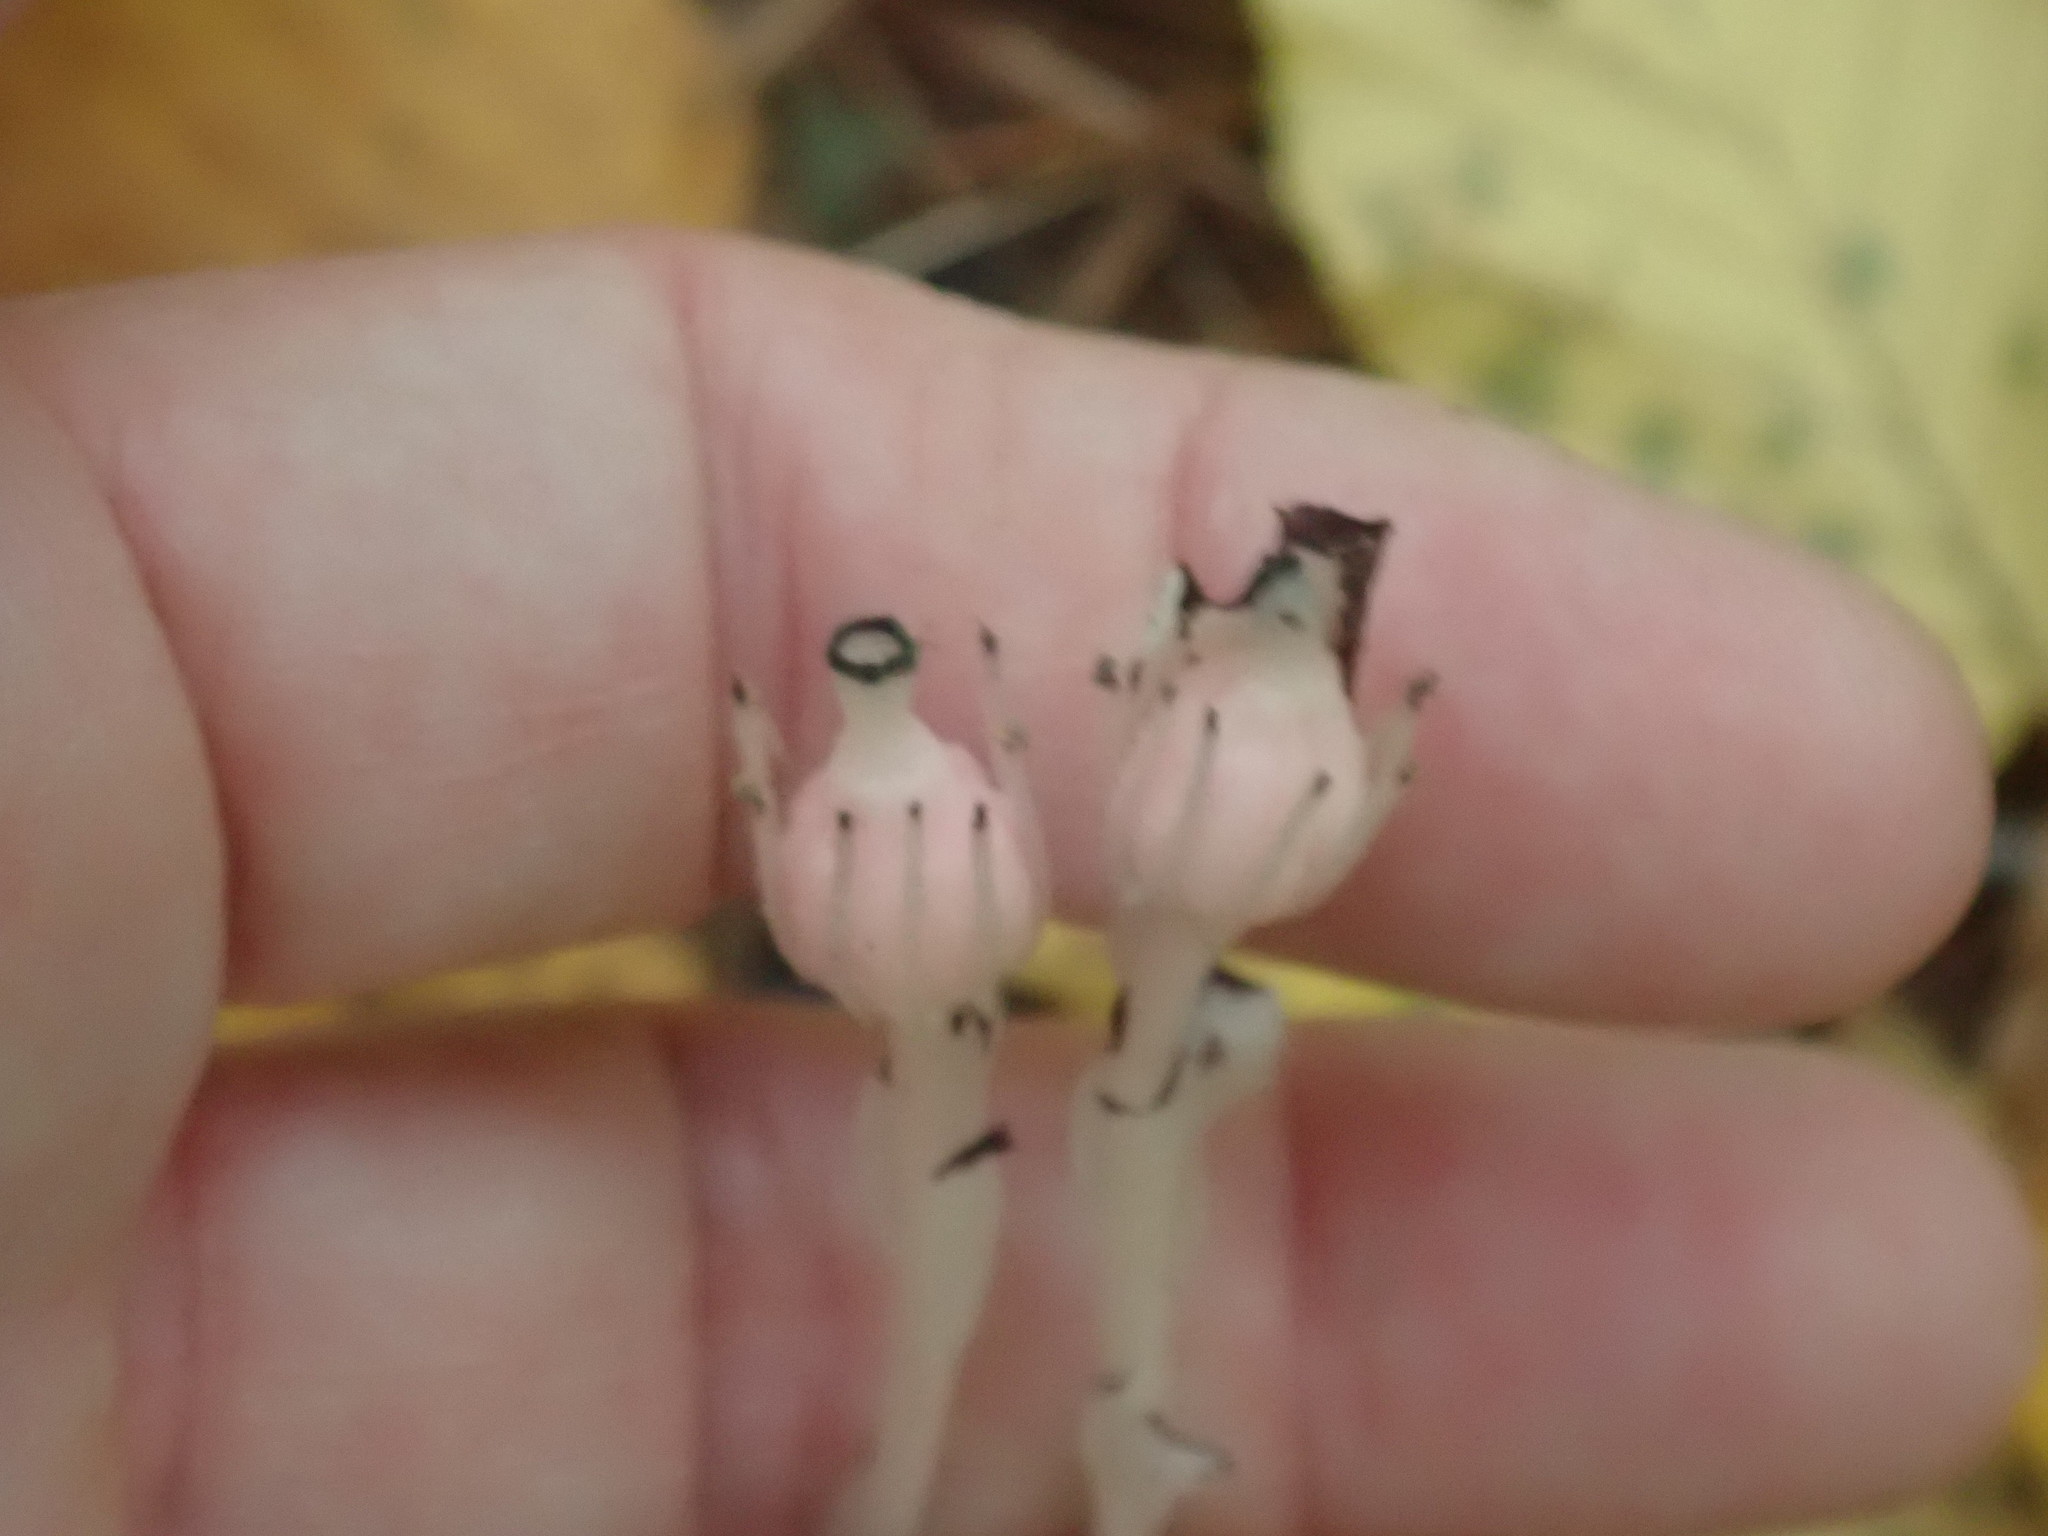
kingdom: Plantae
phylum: Tracheophyta
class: Magnoliopsida
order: Ericales
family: Ericaceae
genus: Monotropa
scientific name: Monotropa uniflora
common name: Convulsion root
